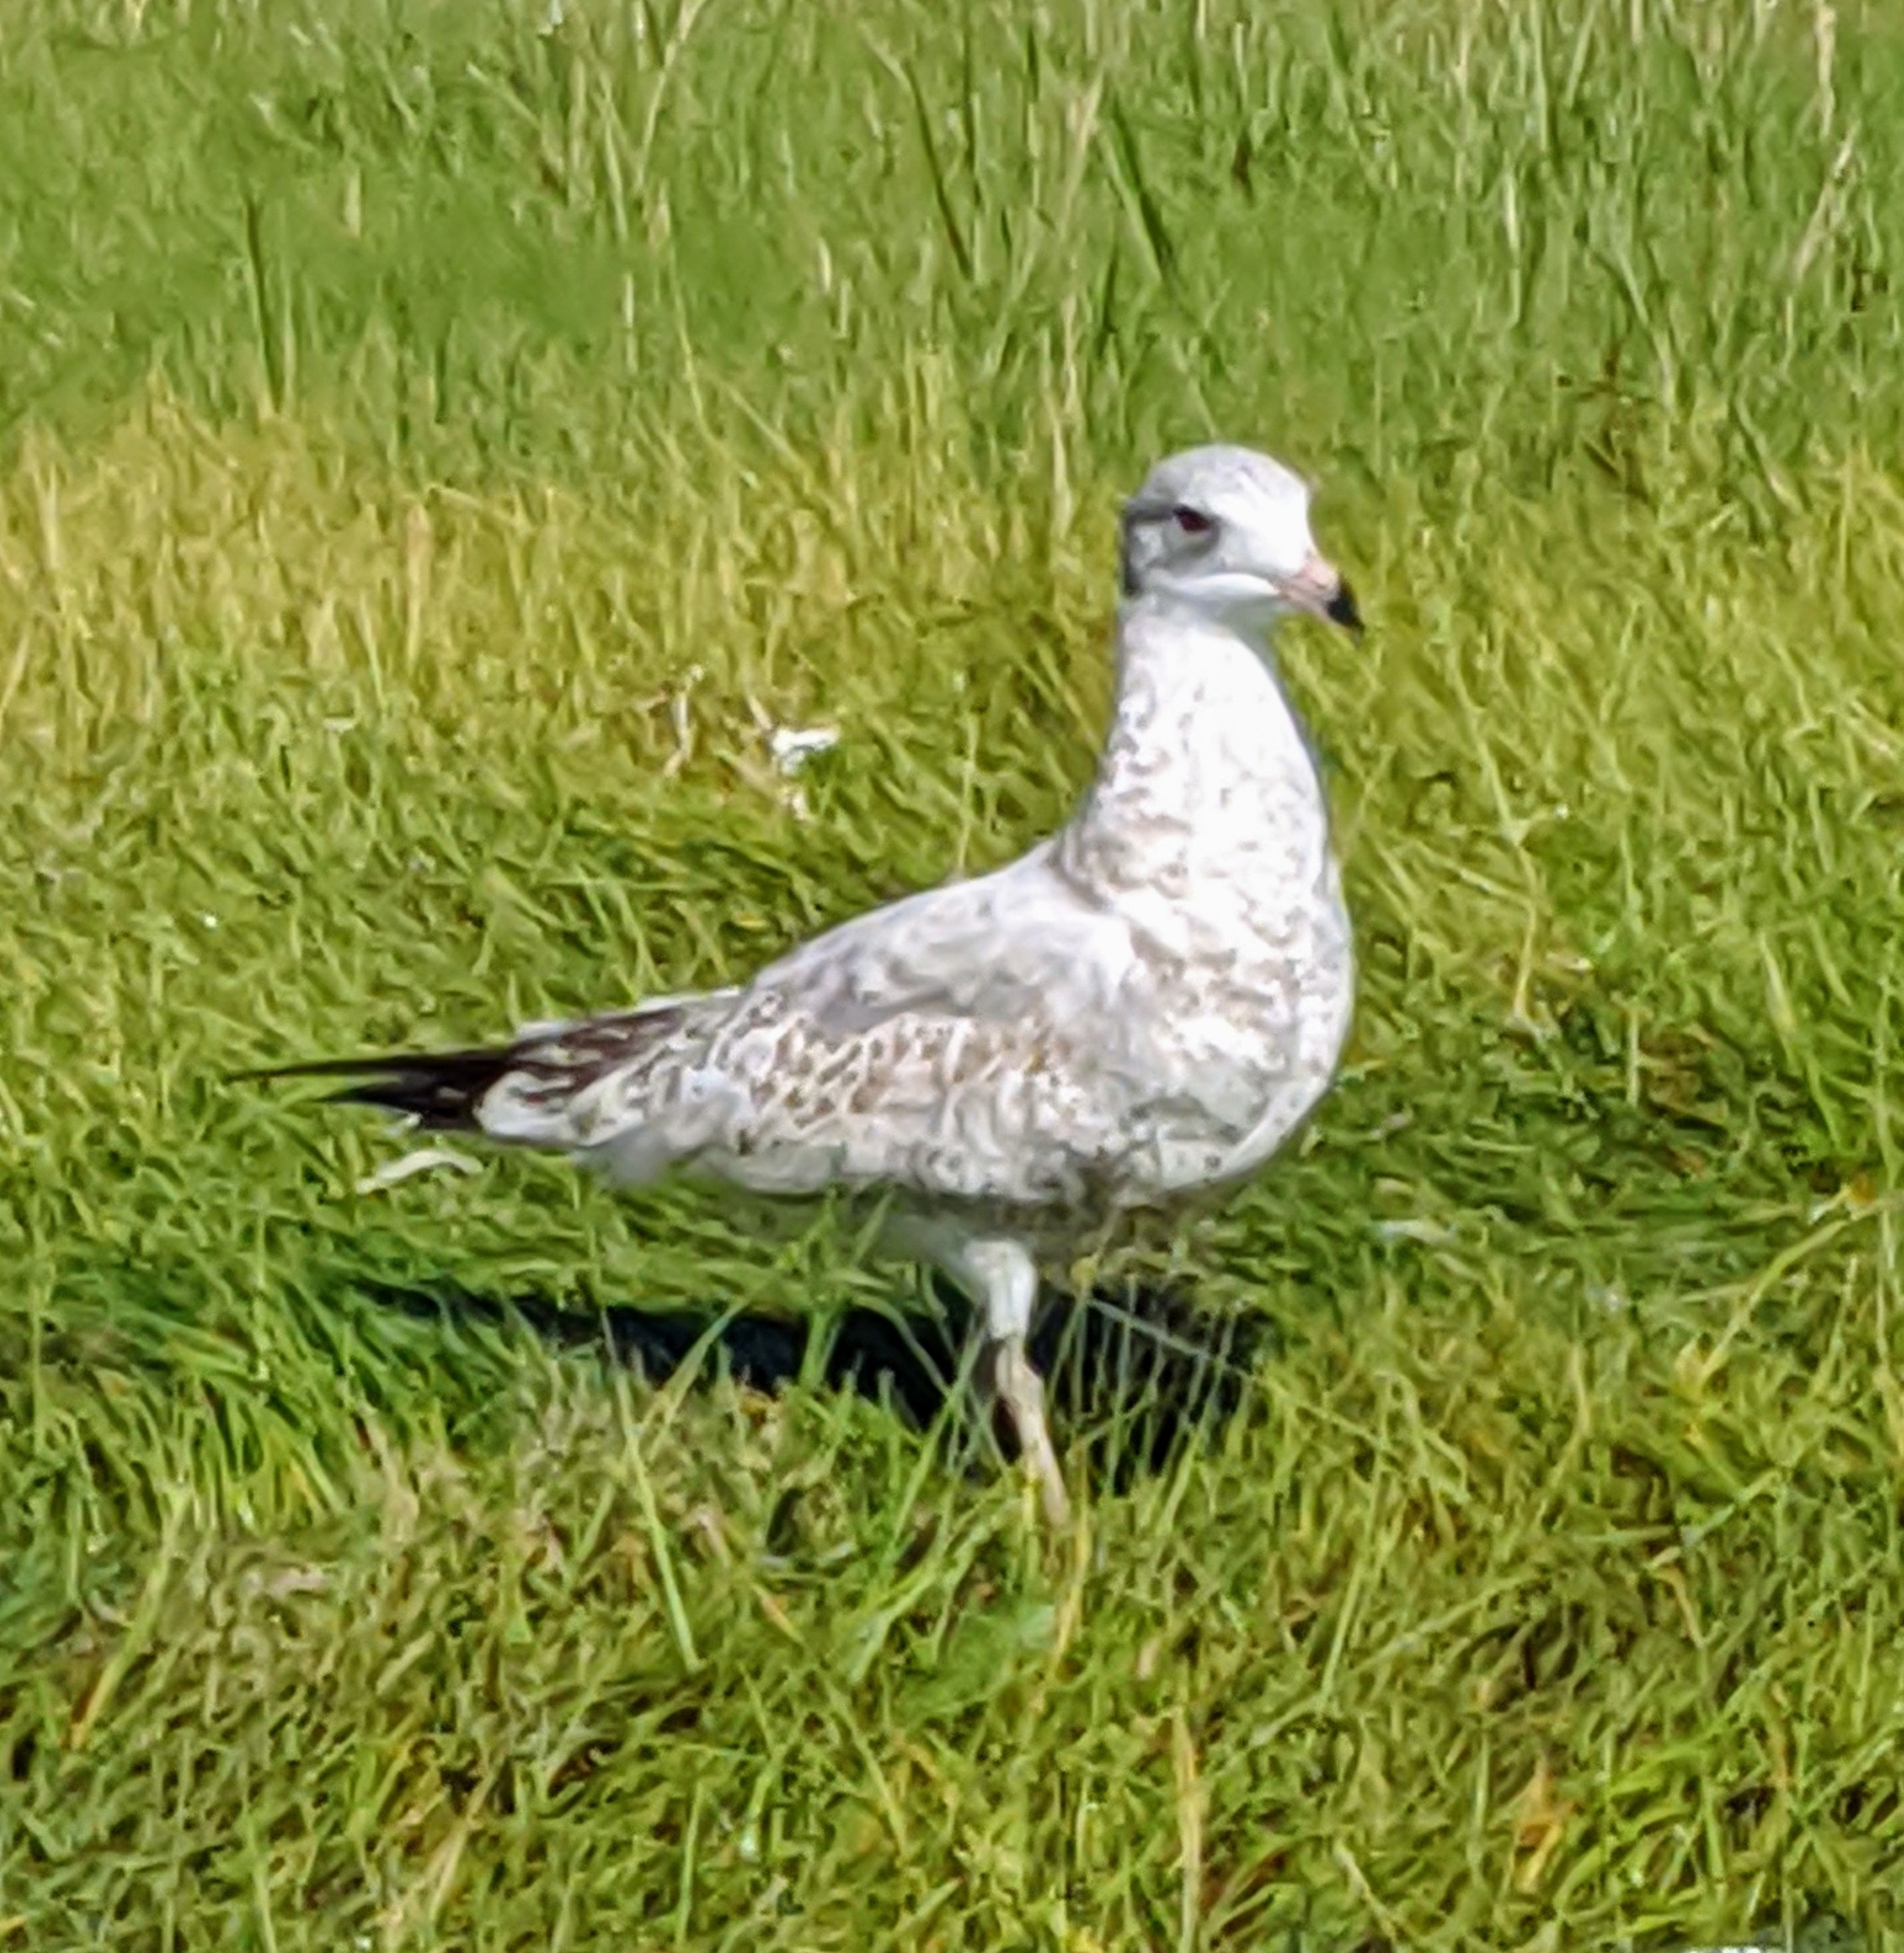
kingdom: Animalia
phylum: Chordata
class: Aves
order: Charadriiformes
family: Laridae
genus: Larus
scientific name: Larus delawarensis
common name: Ring-billed gull
